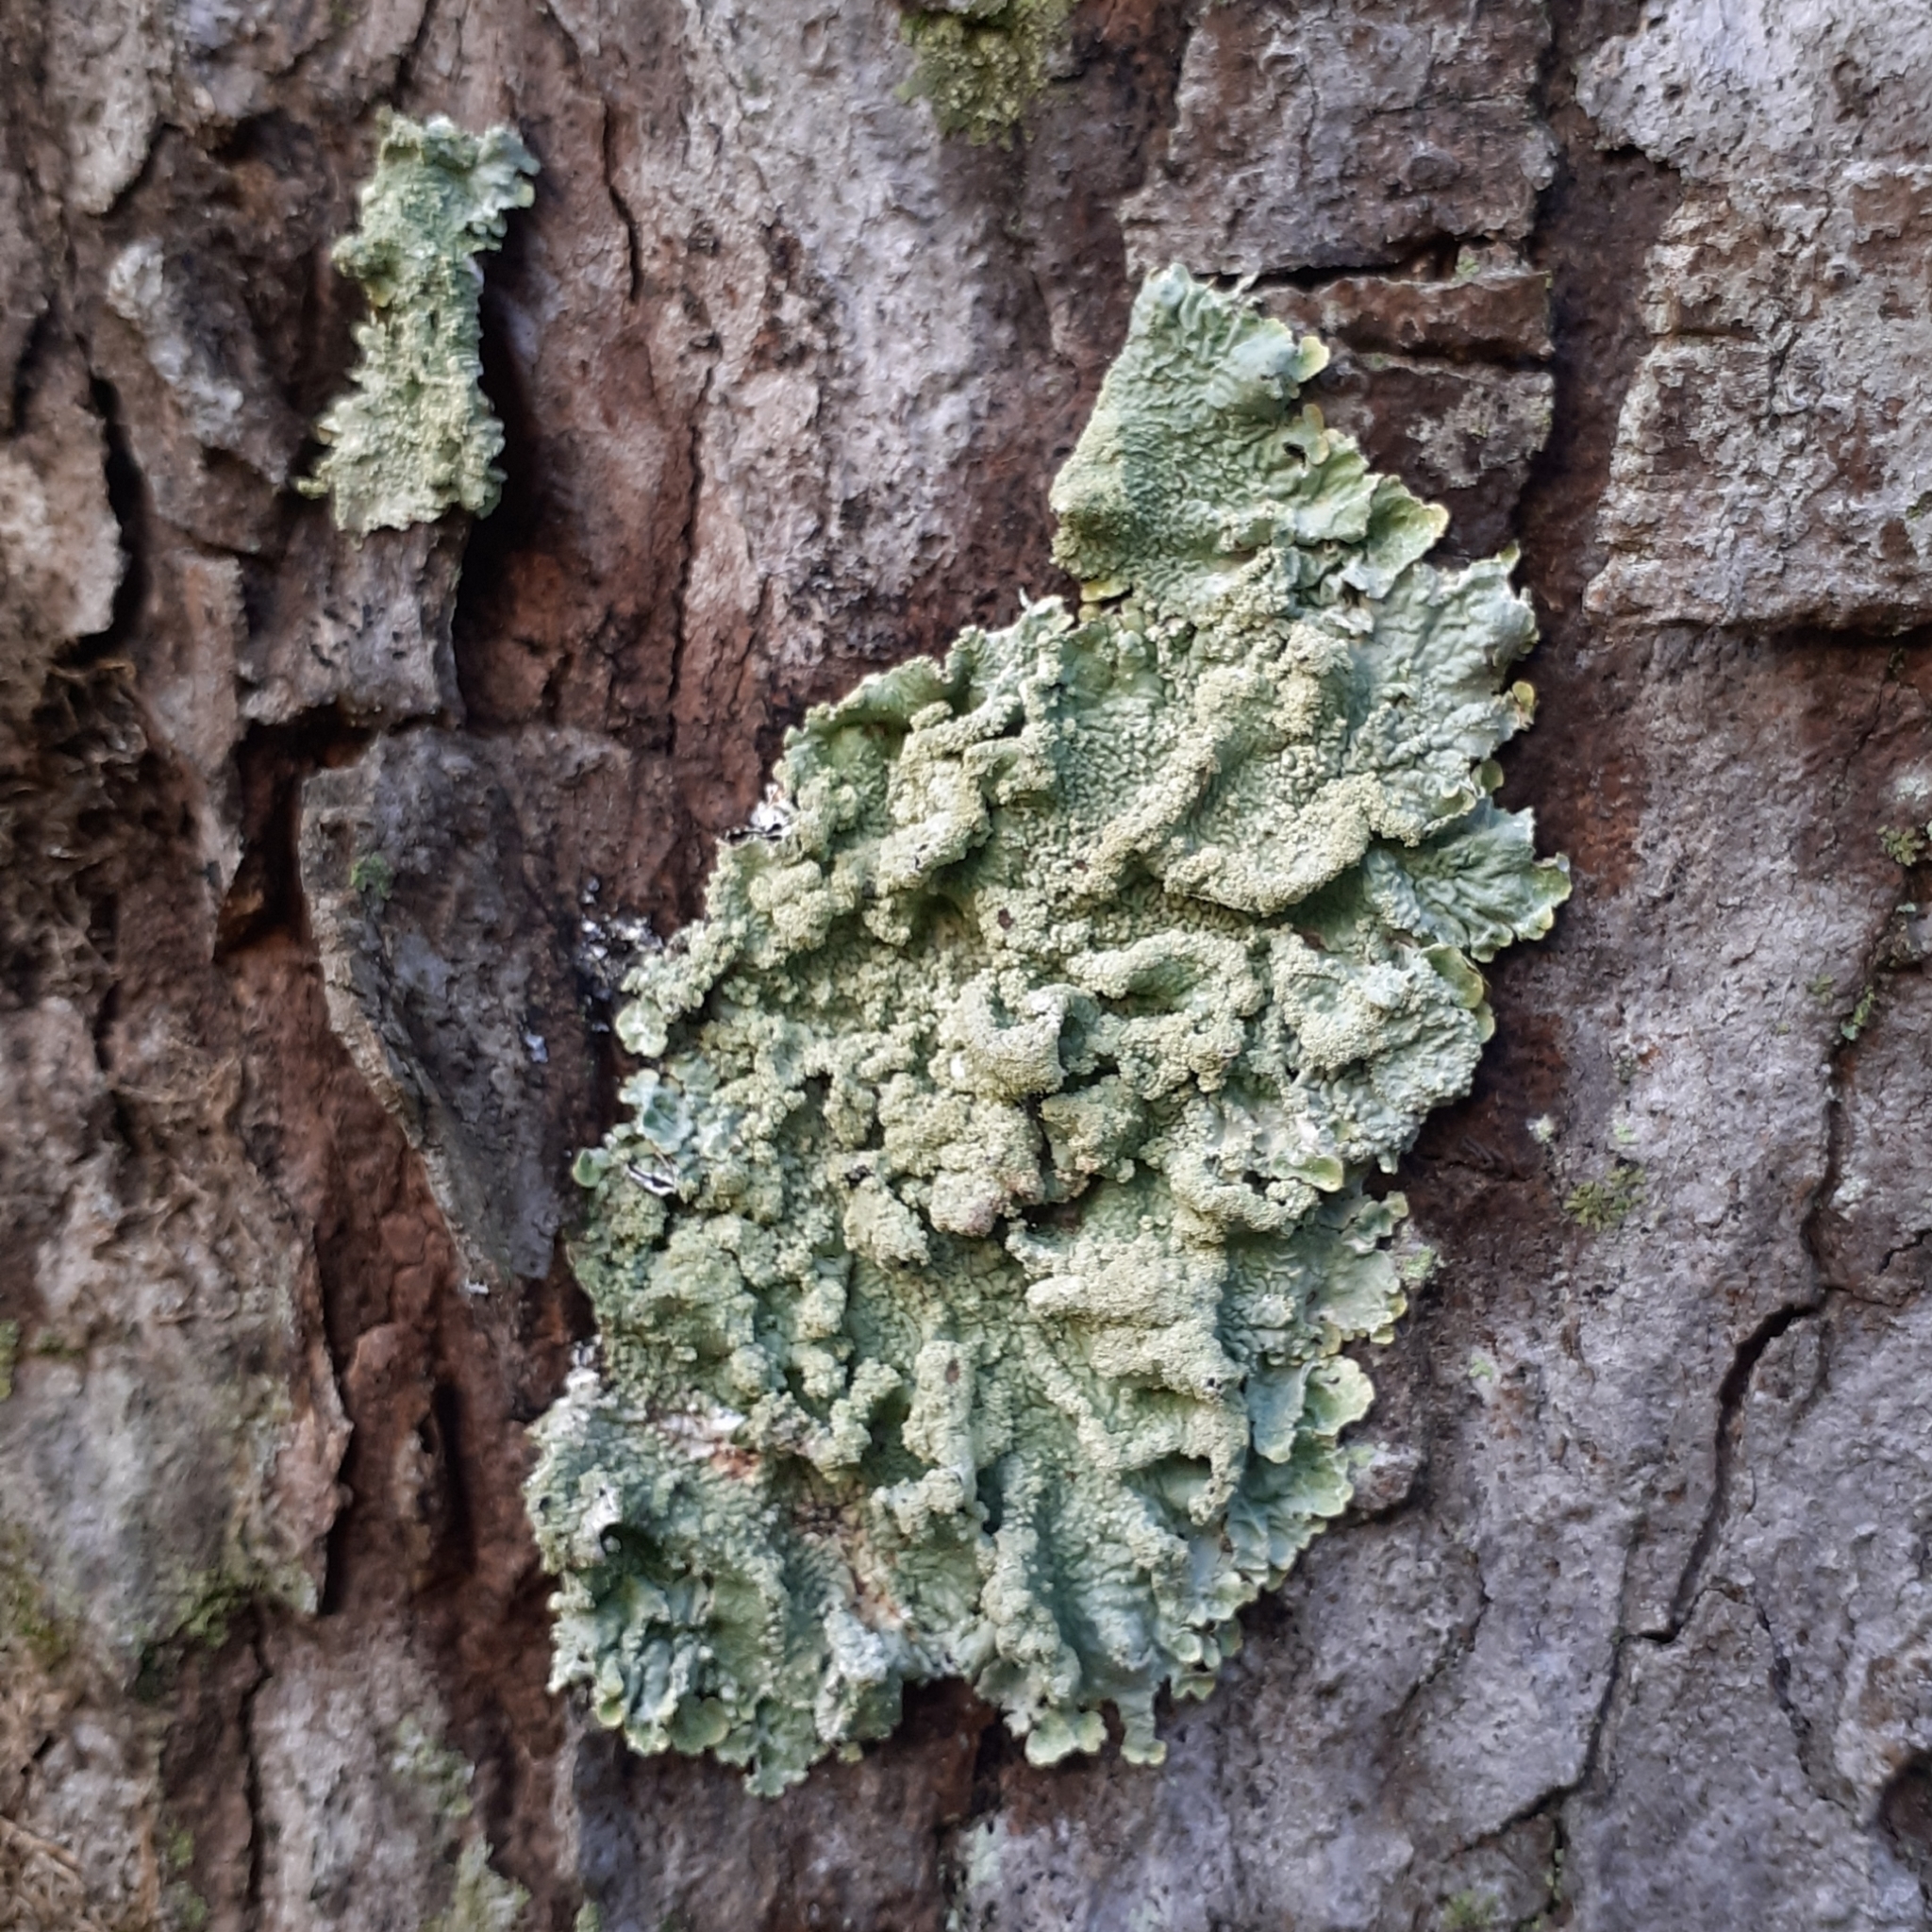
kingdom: Fungi
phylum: Ascomycota
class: Lecanoromycetes
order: Lecanorales
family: Parmeliaceae
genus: Flavoparmelia
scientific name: Flavoparmelia caperata
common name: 40-mile per hour lichen
